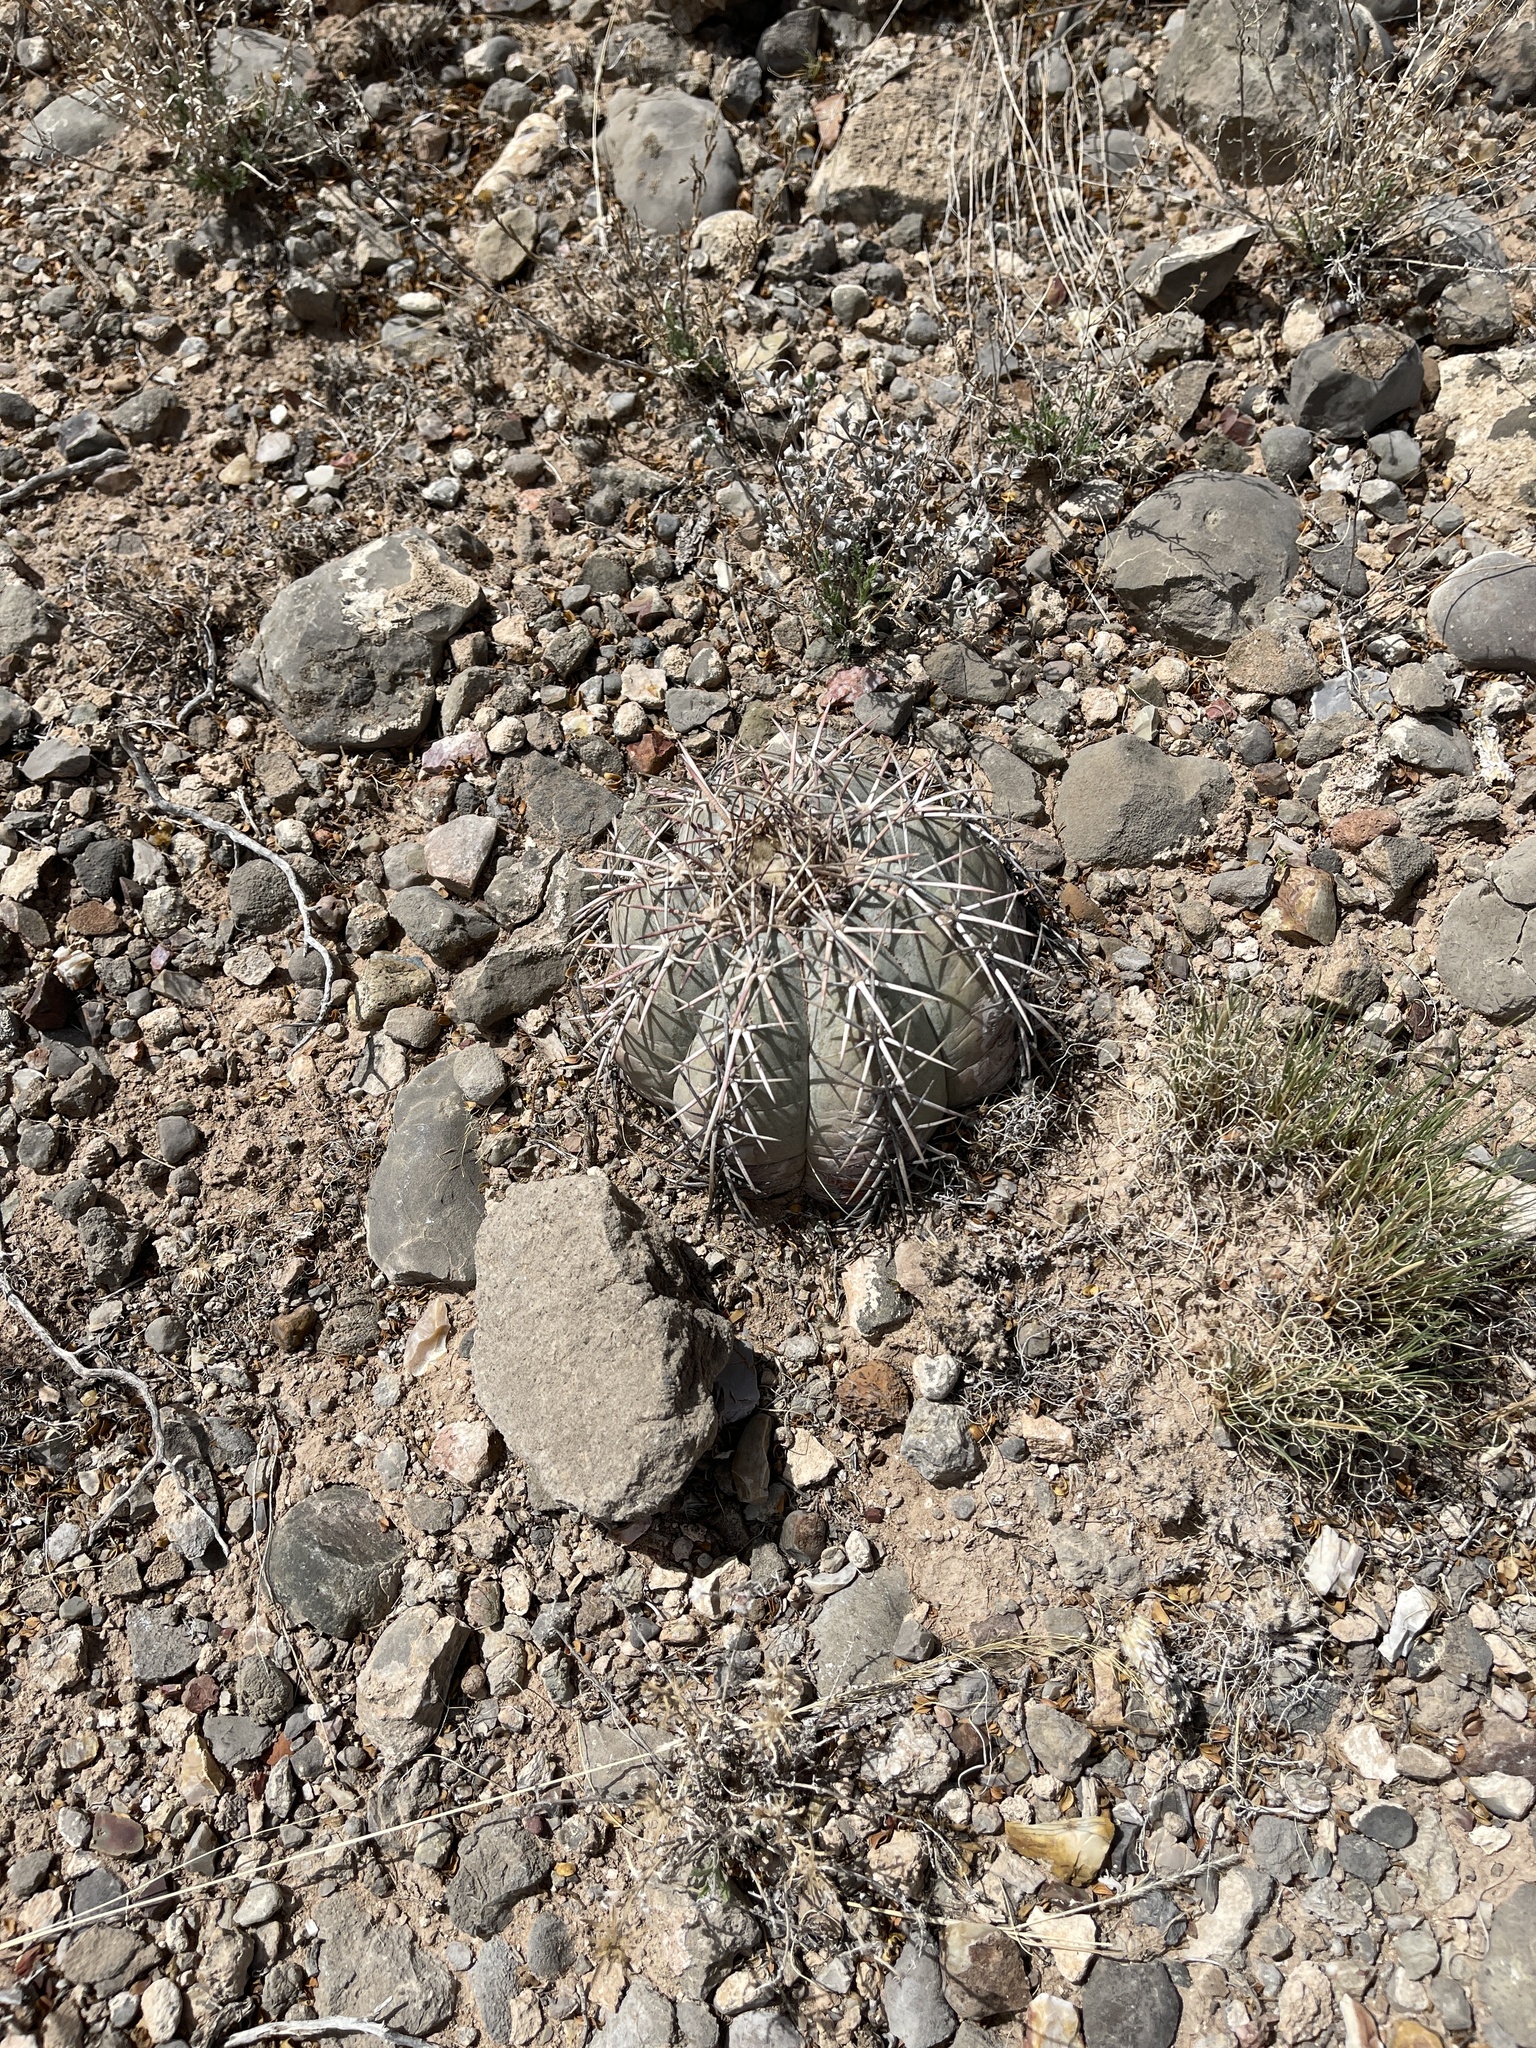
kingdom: Plantae
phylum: Tracheophyta
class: Magnoliopsida
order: Caryophyllales
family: Cactaceae
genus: Echinocactus
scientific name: Echinocactus horizonthalonius
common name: Devilshead
